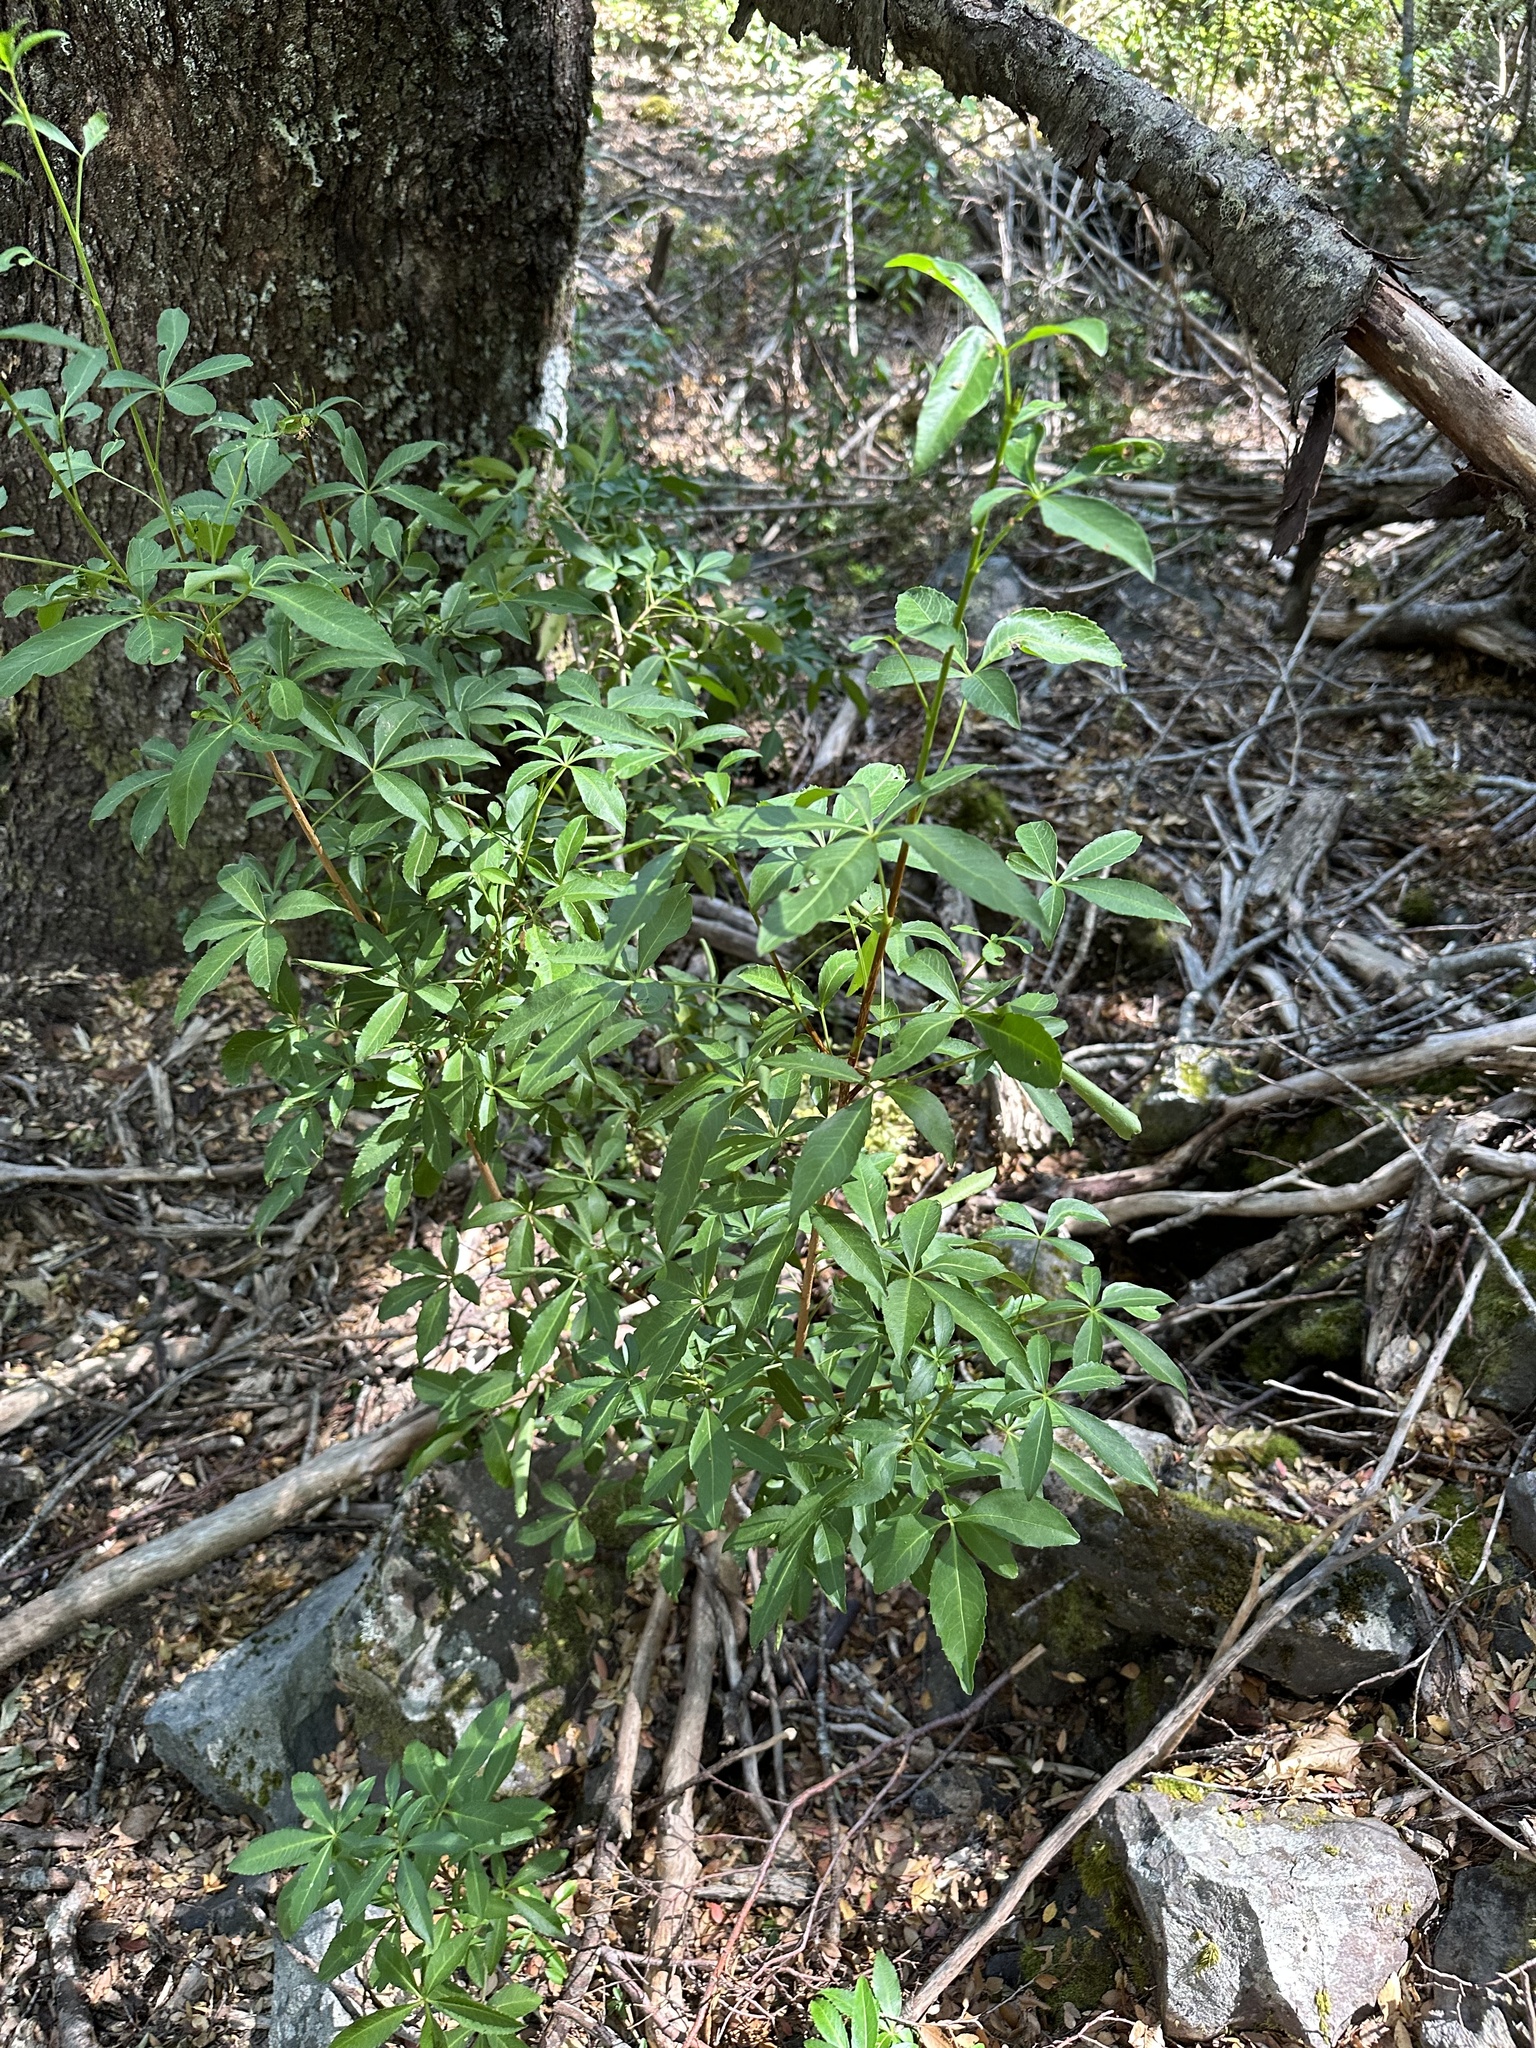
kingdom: Plantae
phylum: Tracheophyta
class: Magnoliopsida
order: Apiales
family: Araliaceae
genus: Raukaua
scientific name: Raukaua laetevirens
